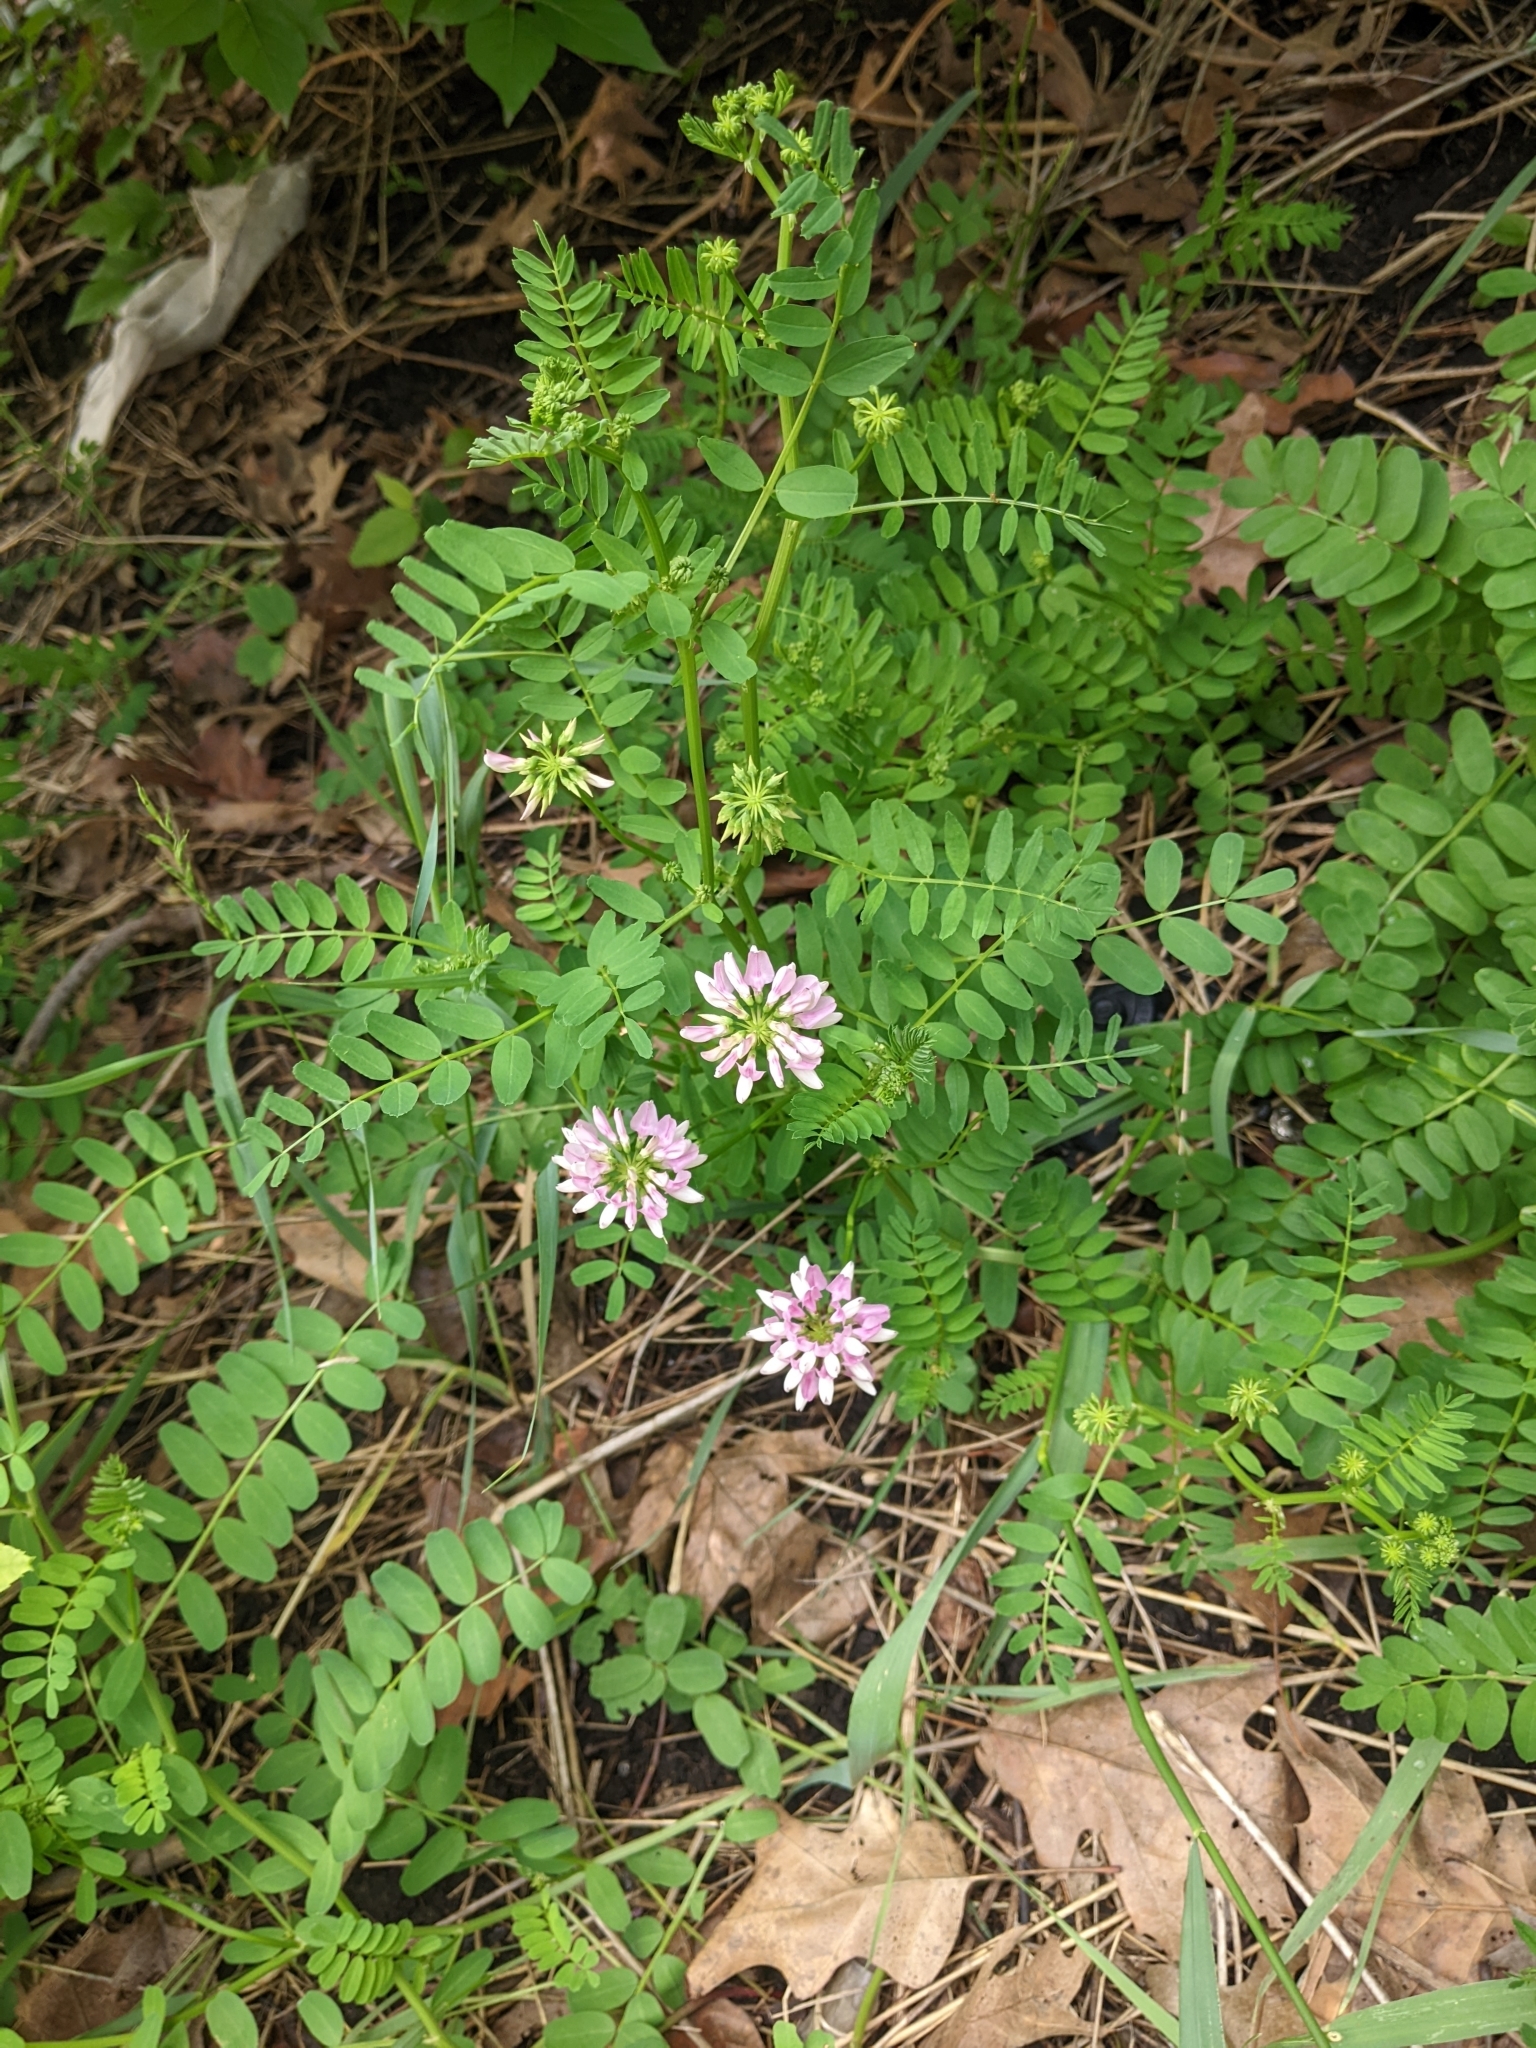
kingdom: Plantae
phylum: Tracheophyta
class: Magnoliopsida
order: Fabales
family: Fabaceae
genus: Coronilla
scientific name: Coronilla varia
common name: Crownvetch
